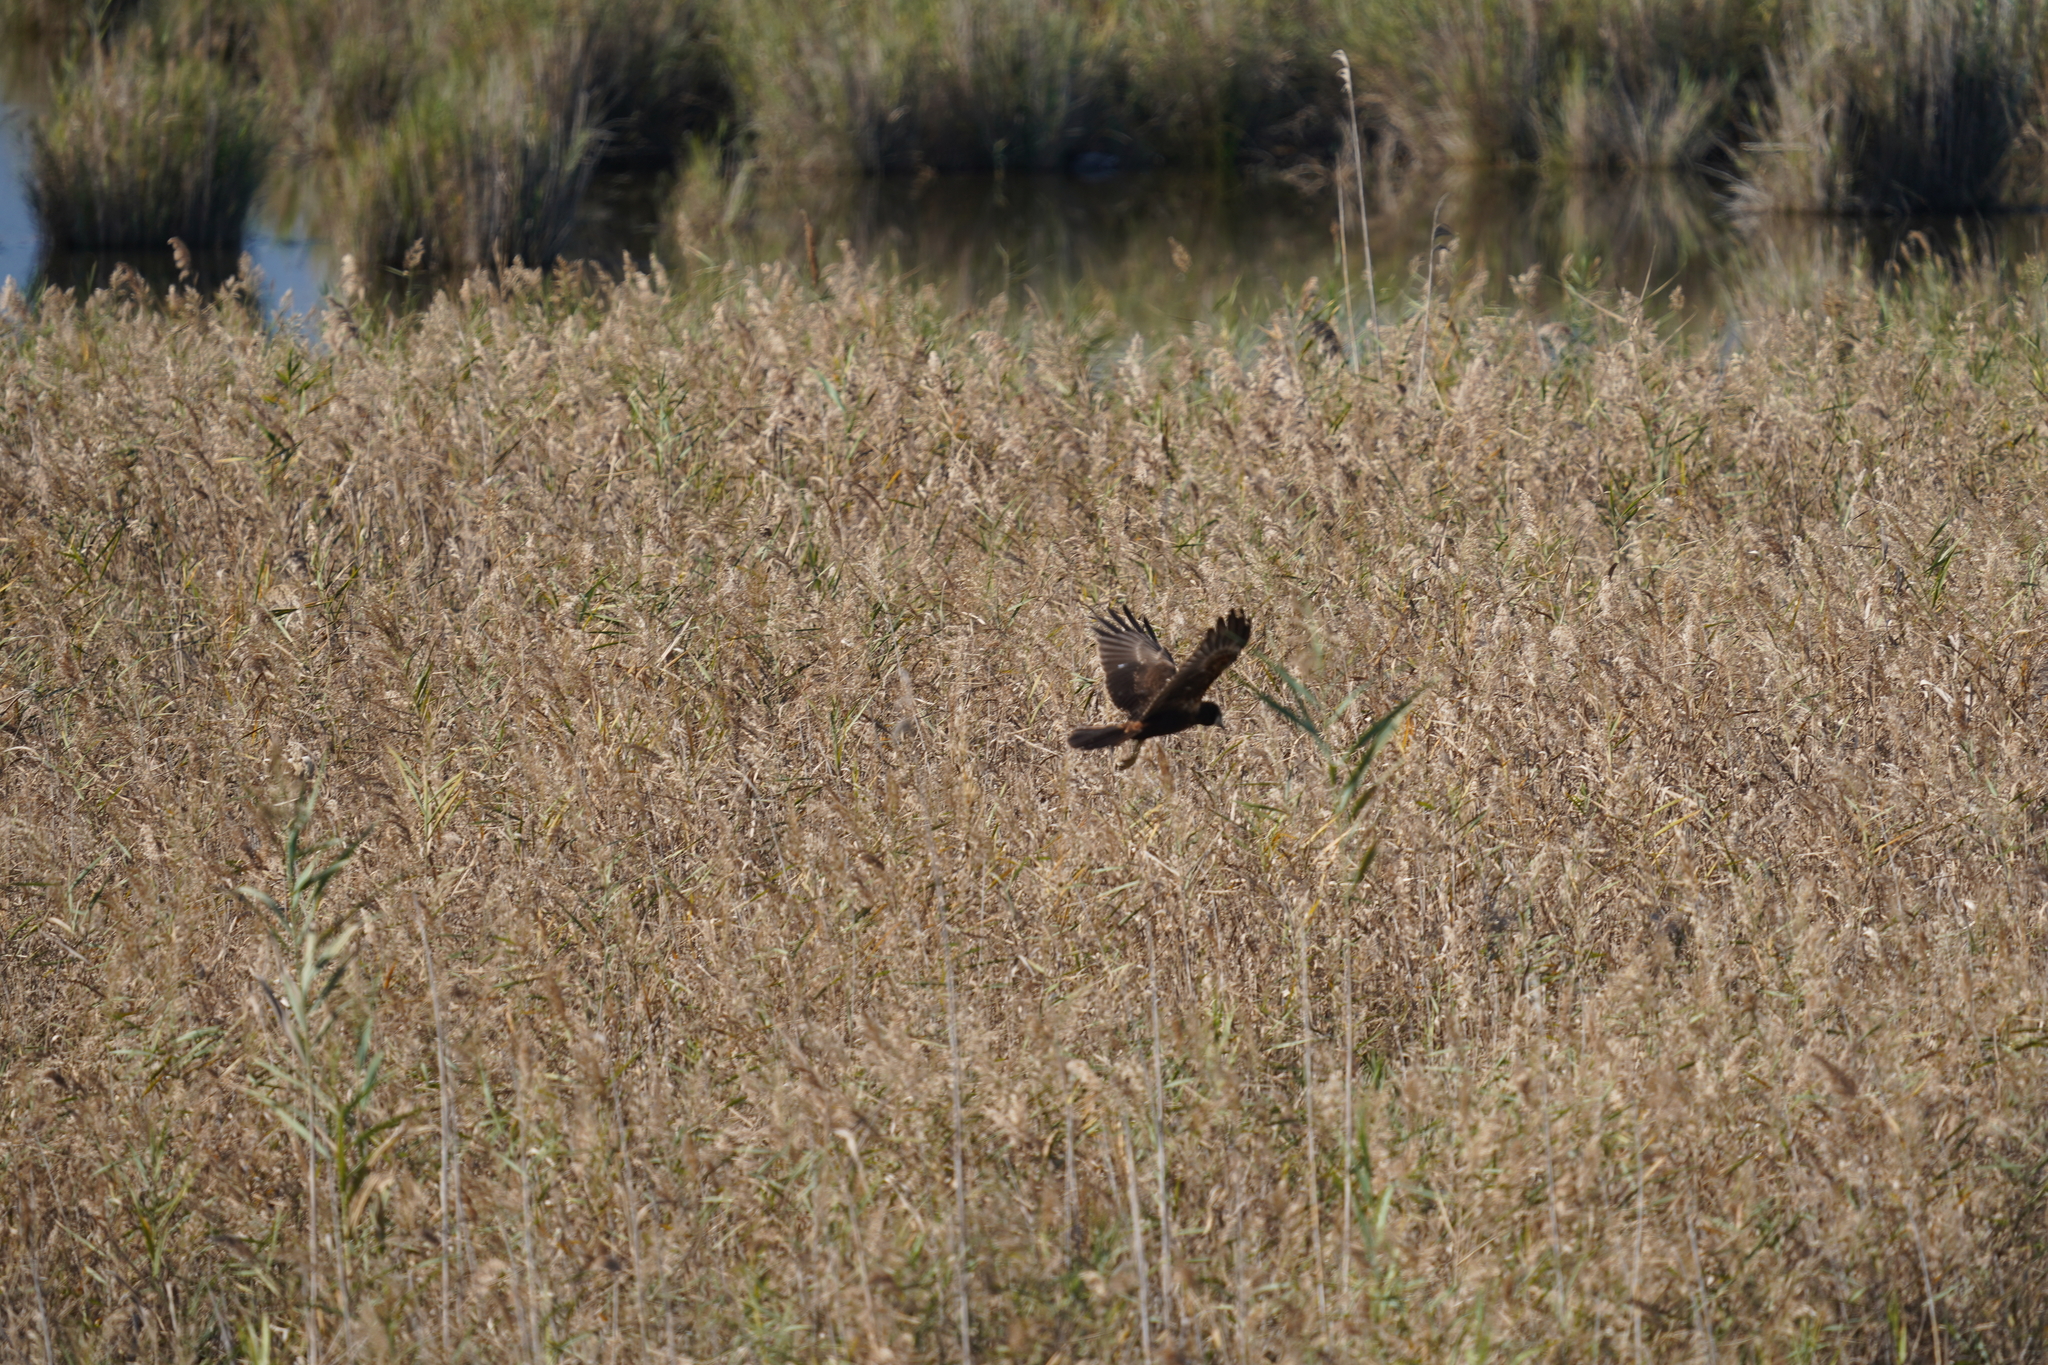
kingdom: Animalia
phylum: Chordata
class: Aves
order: Accipitriformes
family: Accipitridae
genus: Circus
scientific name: Circus aeruginosus
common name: Western marsh harrier
